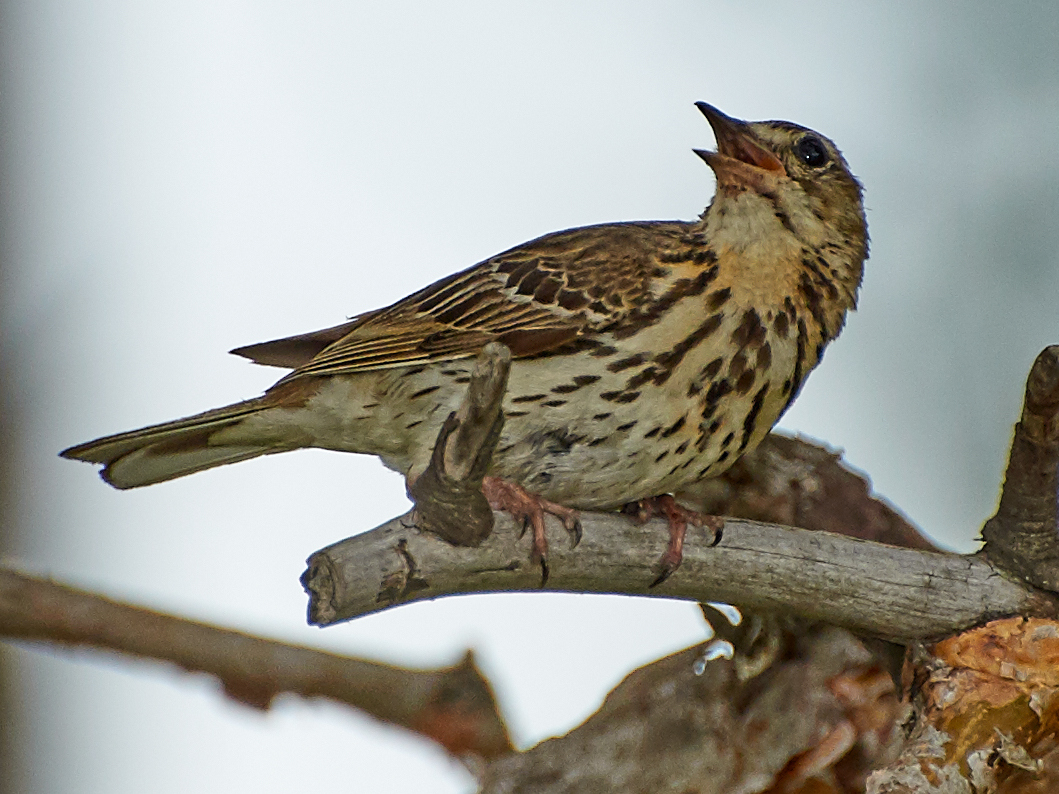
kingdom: Animalia
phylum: Chordata
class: Aves
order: Passeriformes
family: Motacillidae
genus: Anthus
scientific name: Anthus trivialis
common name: Tree pipit
